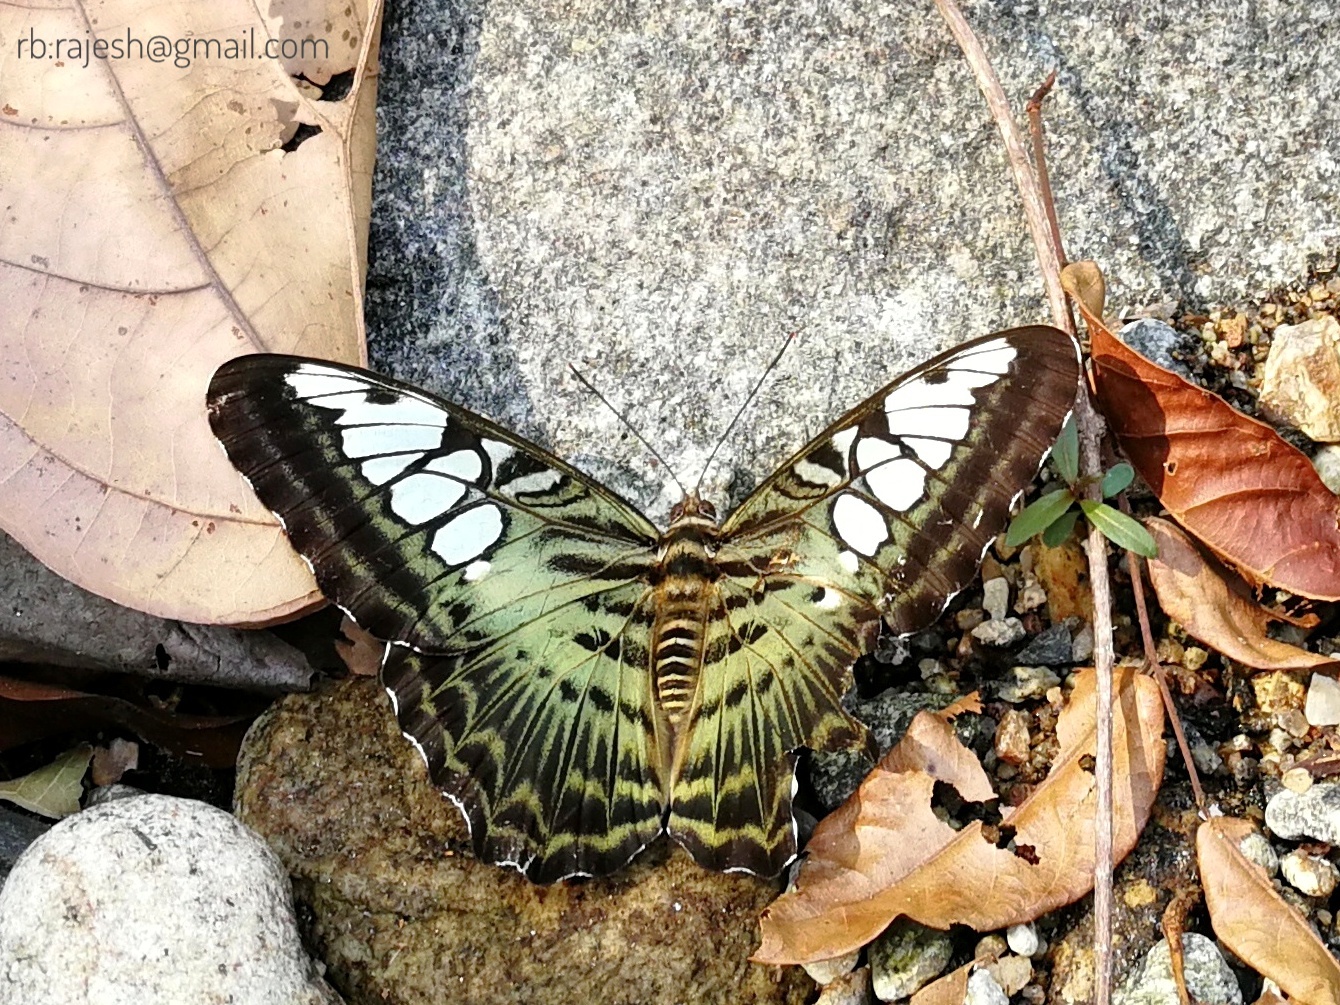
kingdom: Animalia
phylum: Arthropoda
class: Insecta
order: Lepidoptera
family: Nymphalidae
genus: Kallima
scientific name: Kallima sylvia
